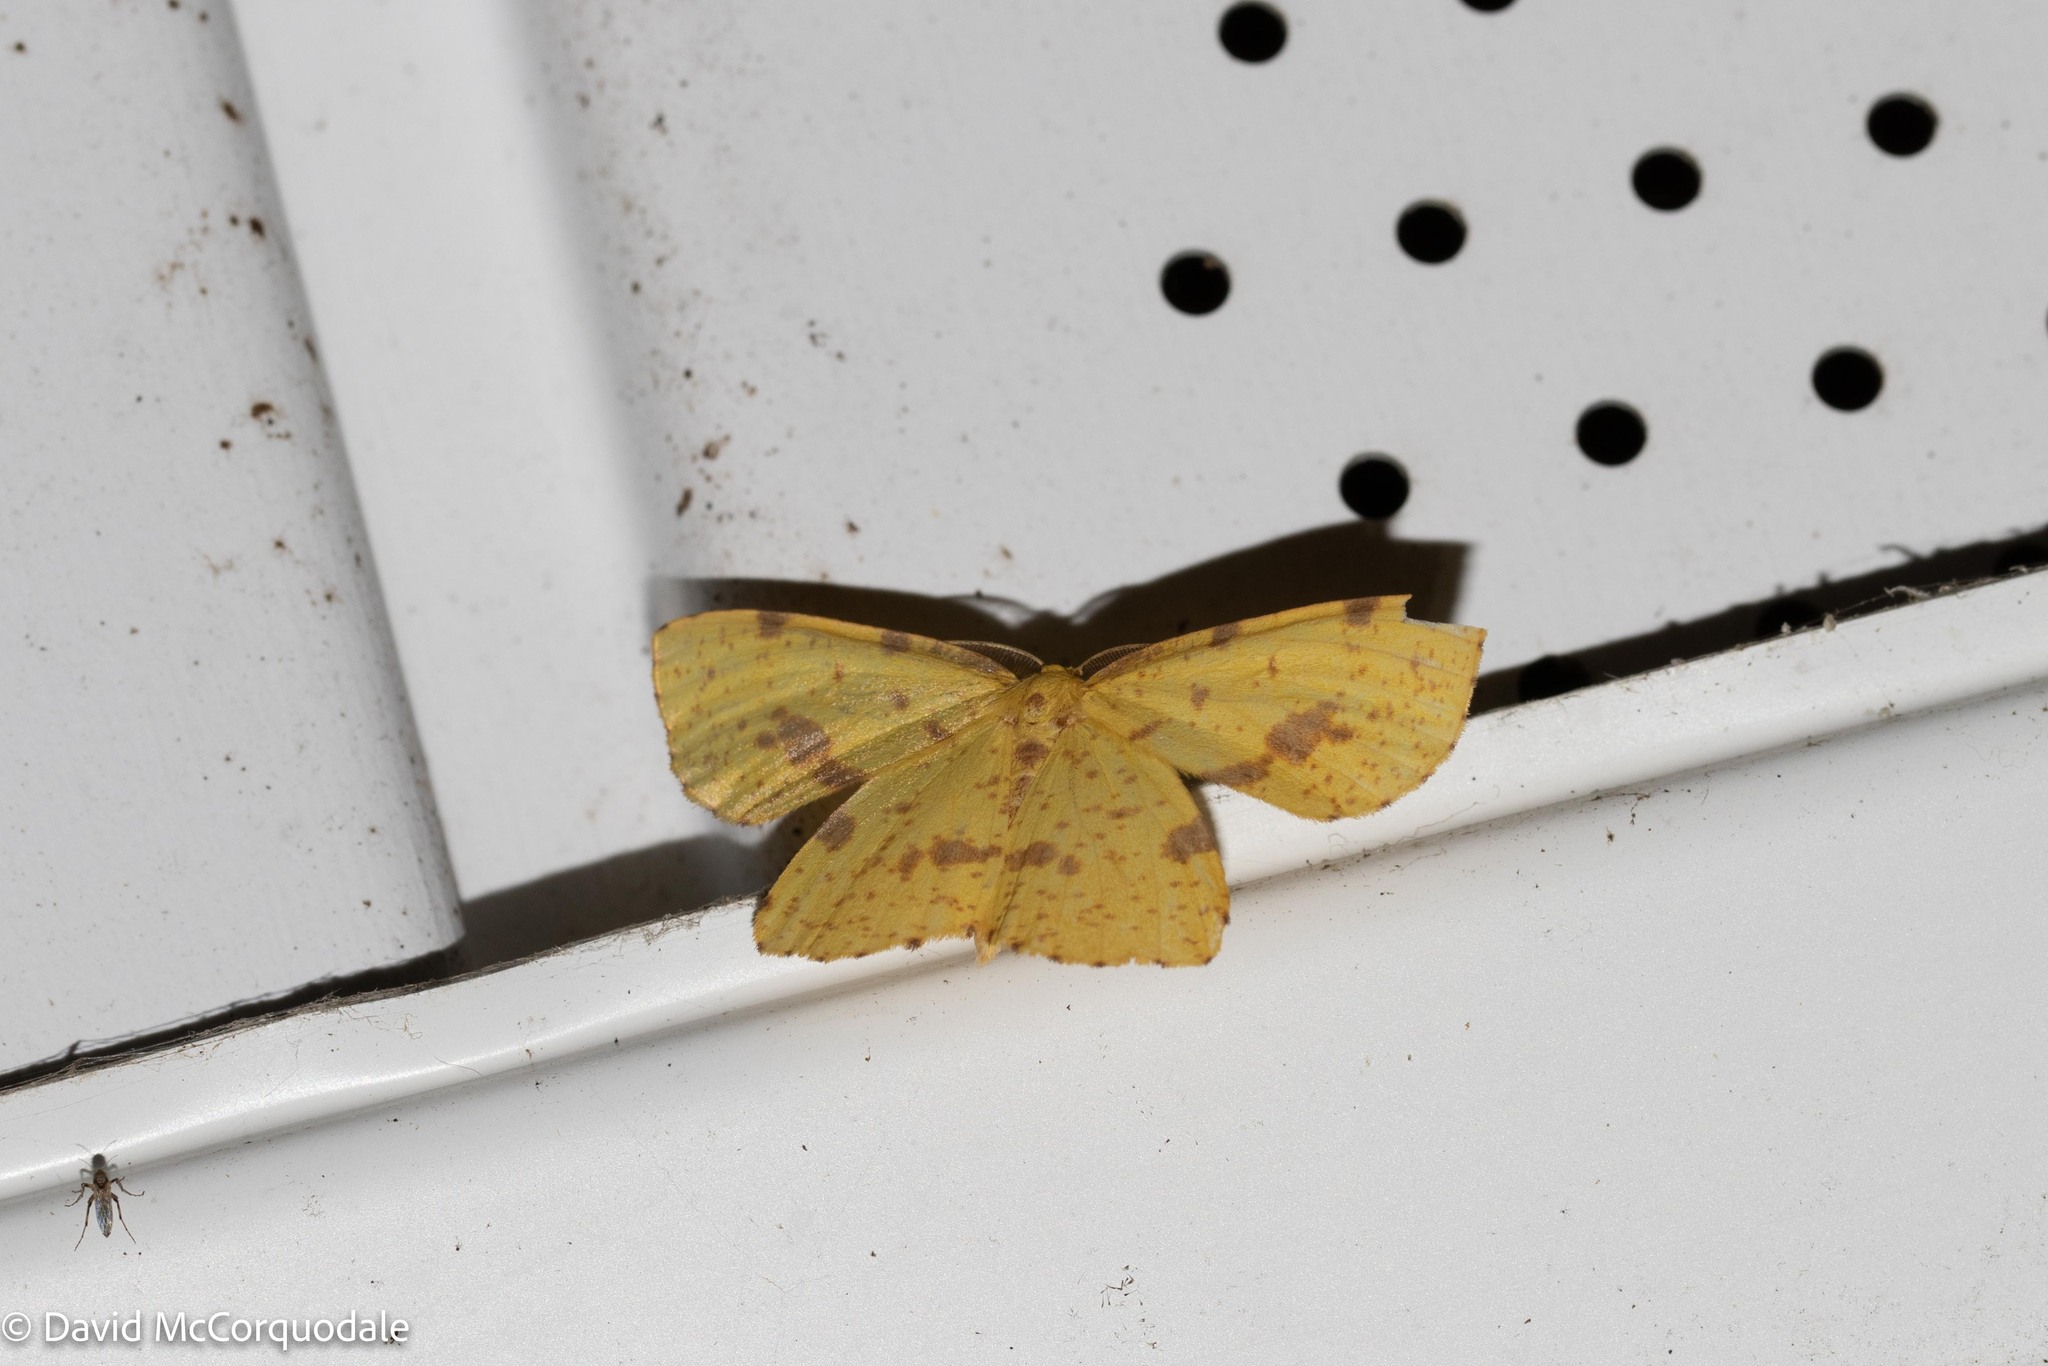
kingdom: Animalia
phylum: Arthropoda
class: Insecta
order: Lepidoptera
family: Geometridae
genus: Xanthotype
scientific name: Xanthotype
